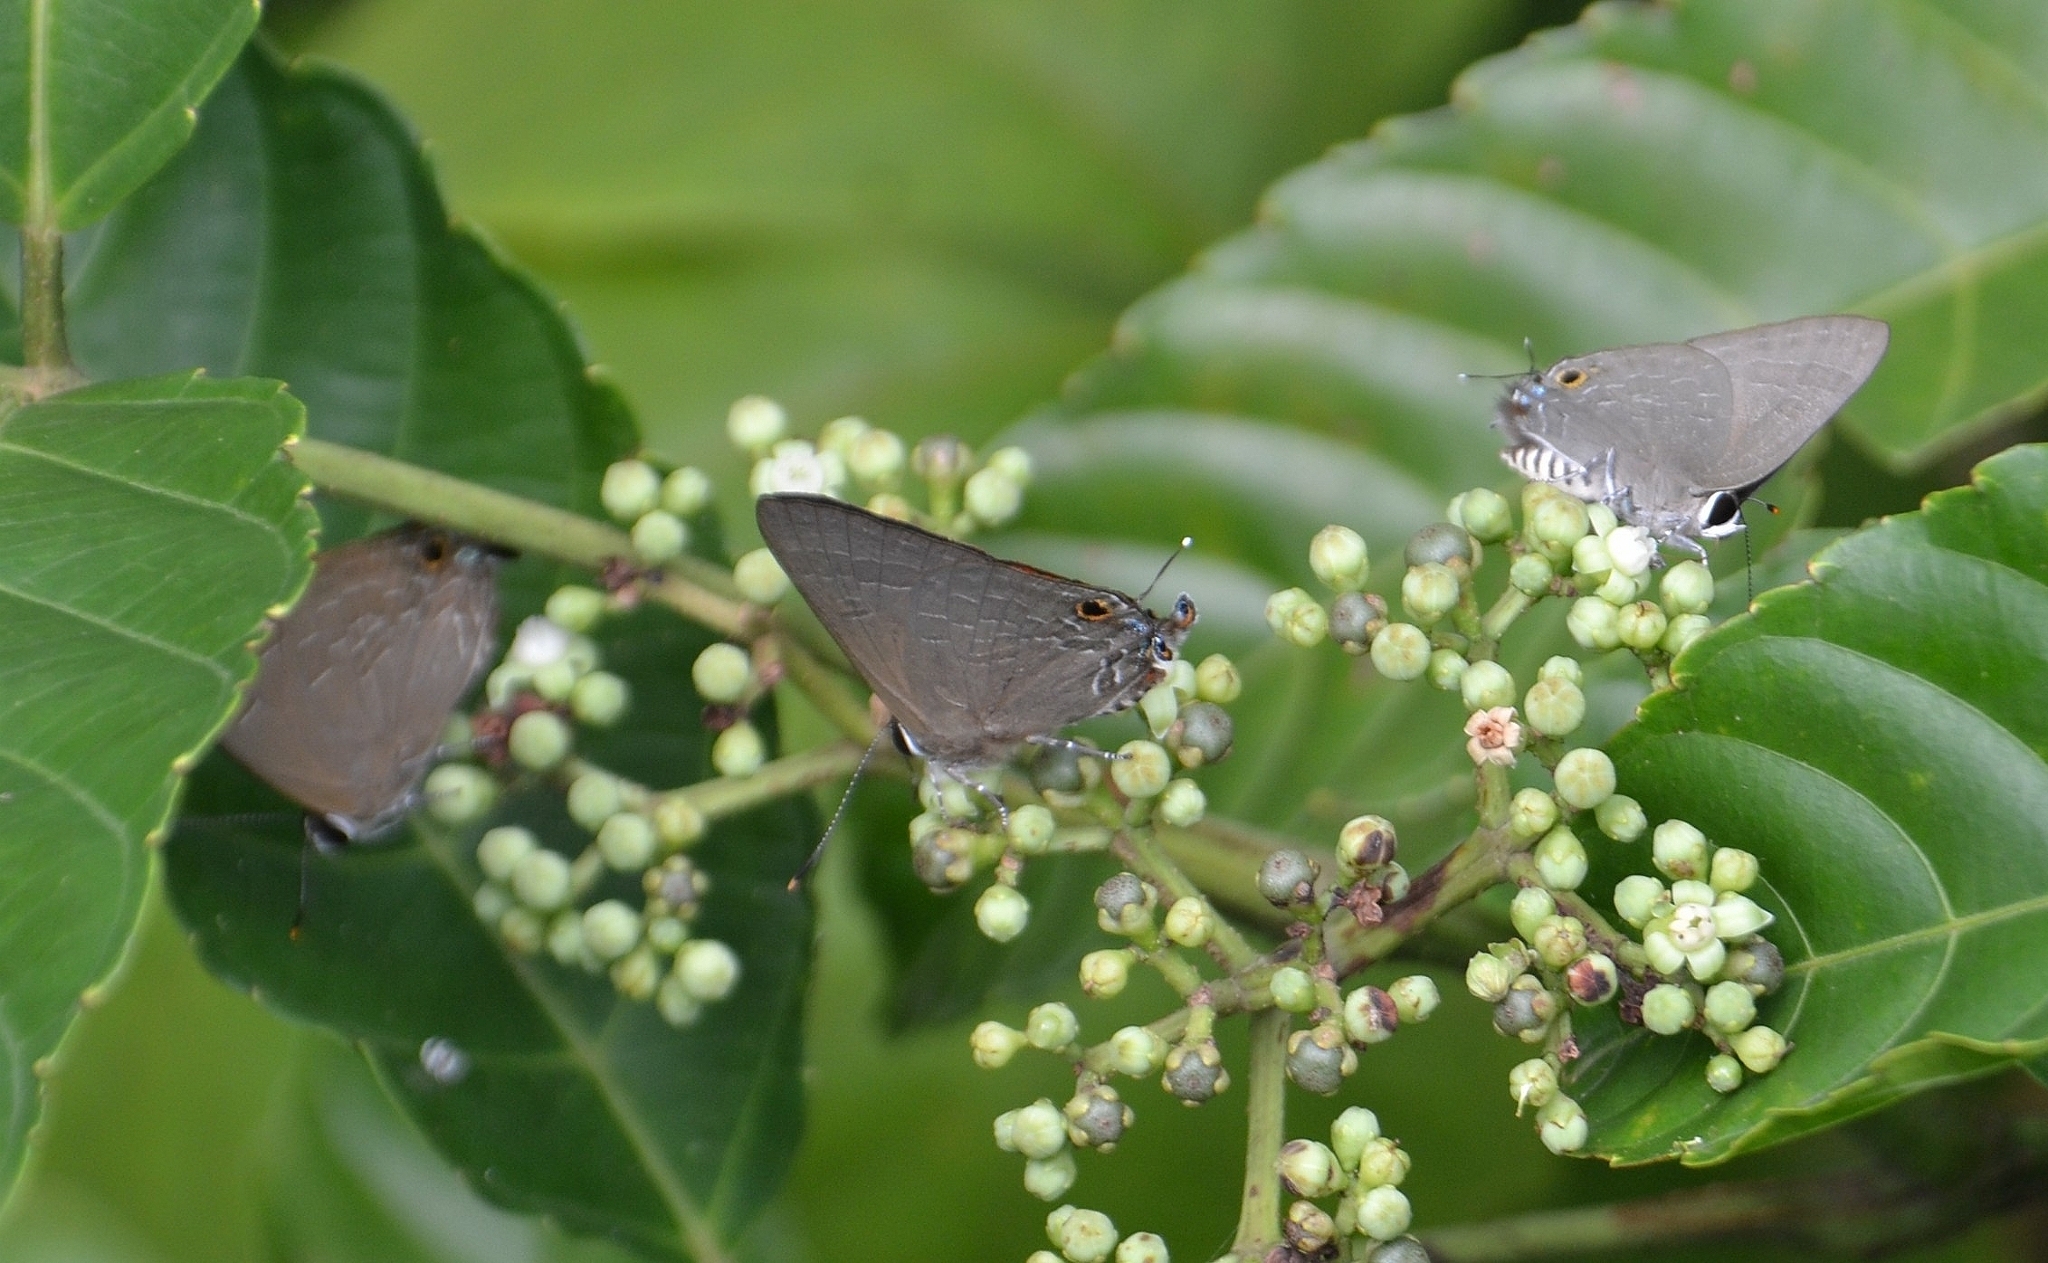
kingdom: Animalia
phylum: Arthropoda
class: Insecta
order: Lepidoptera
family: Lycaenidae
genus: Deudorix
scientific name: Deudorix epijarbas
